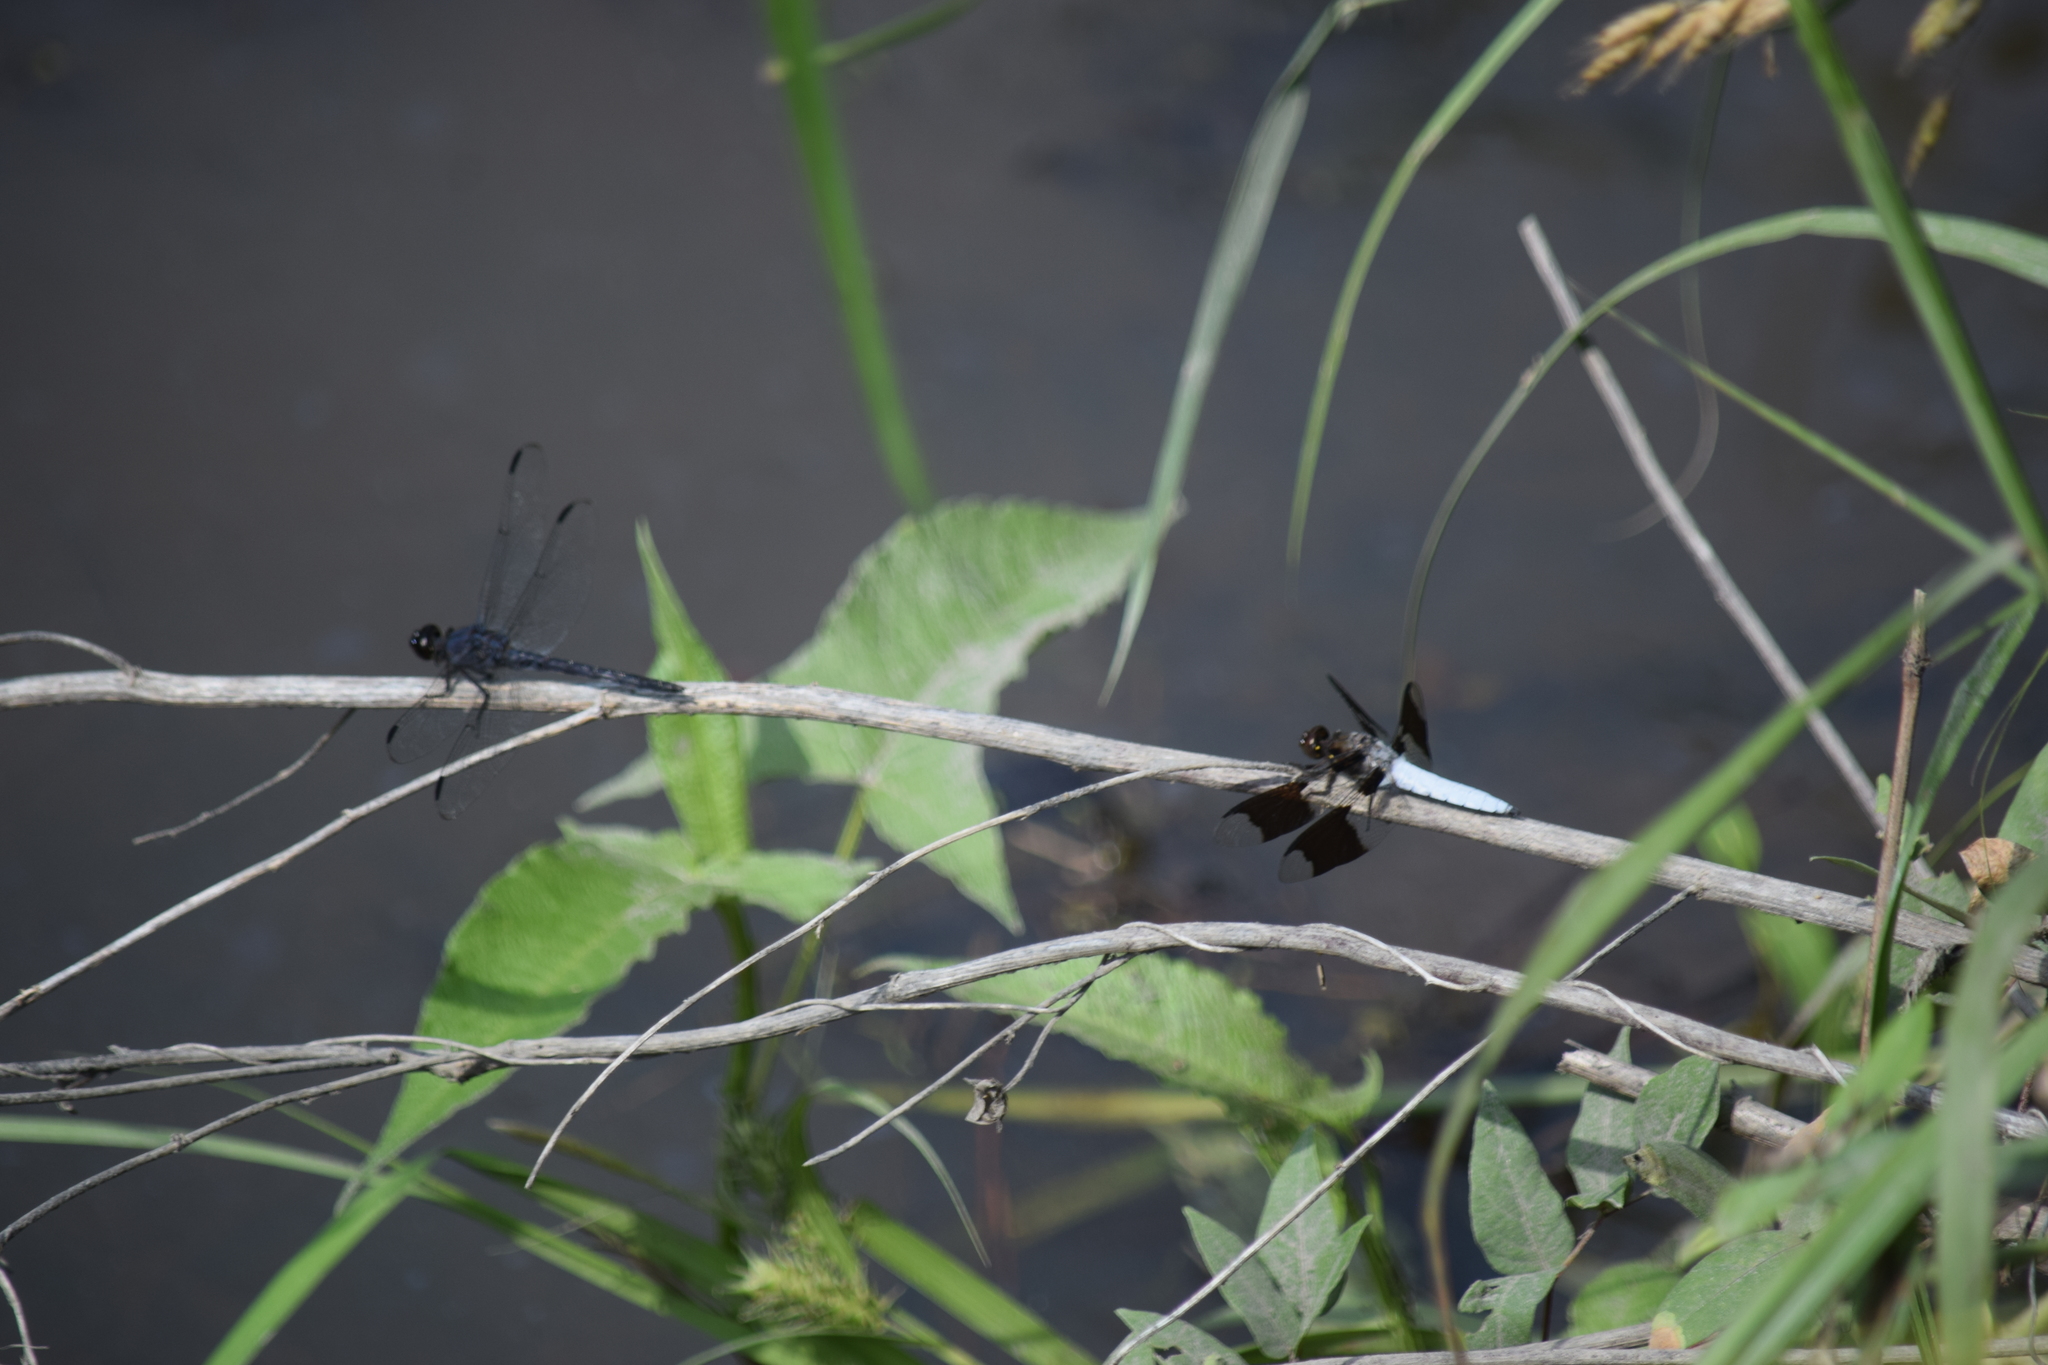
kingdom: Animalia
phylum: Arthropoda
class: Insecta
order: Odonata
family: Libellulidae
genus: Libellula
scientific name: Libellula incesta
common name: Slaty skimmer
